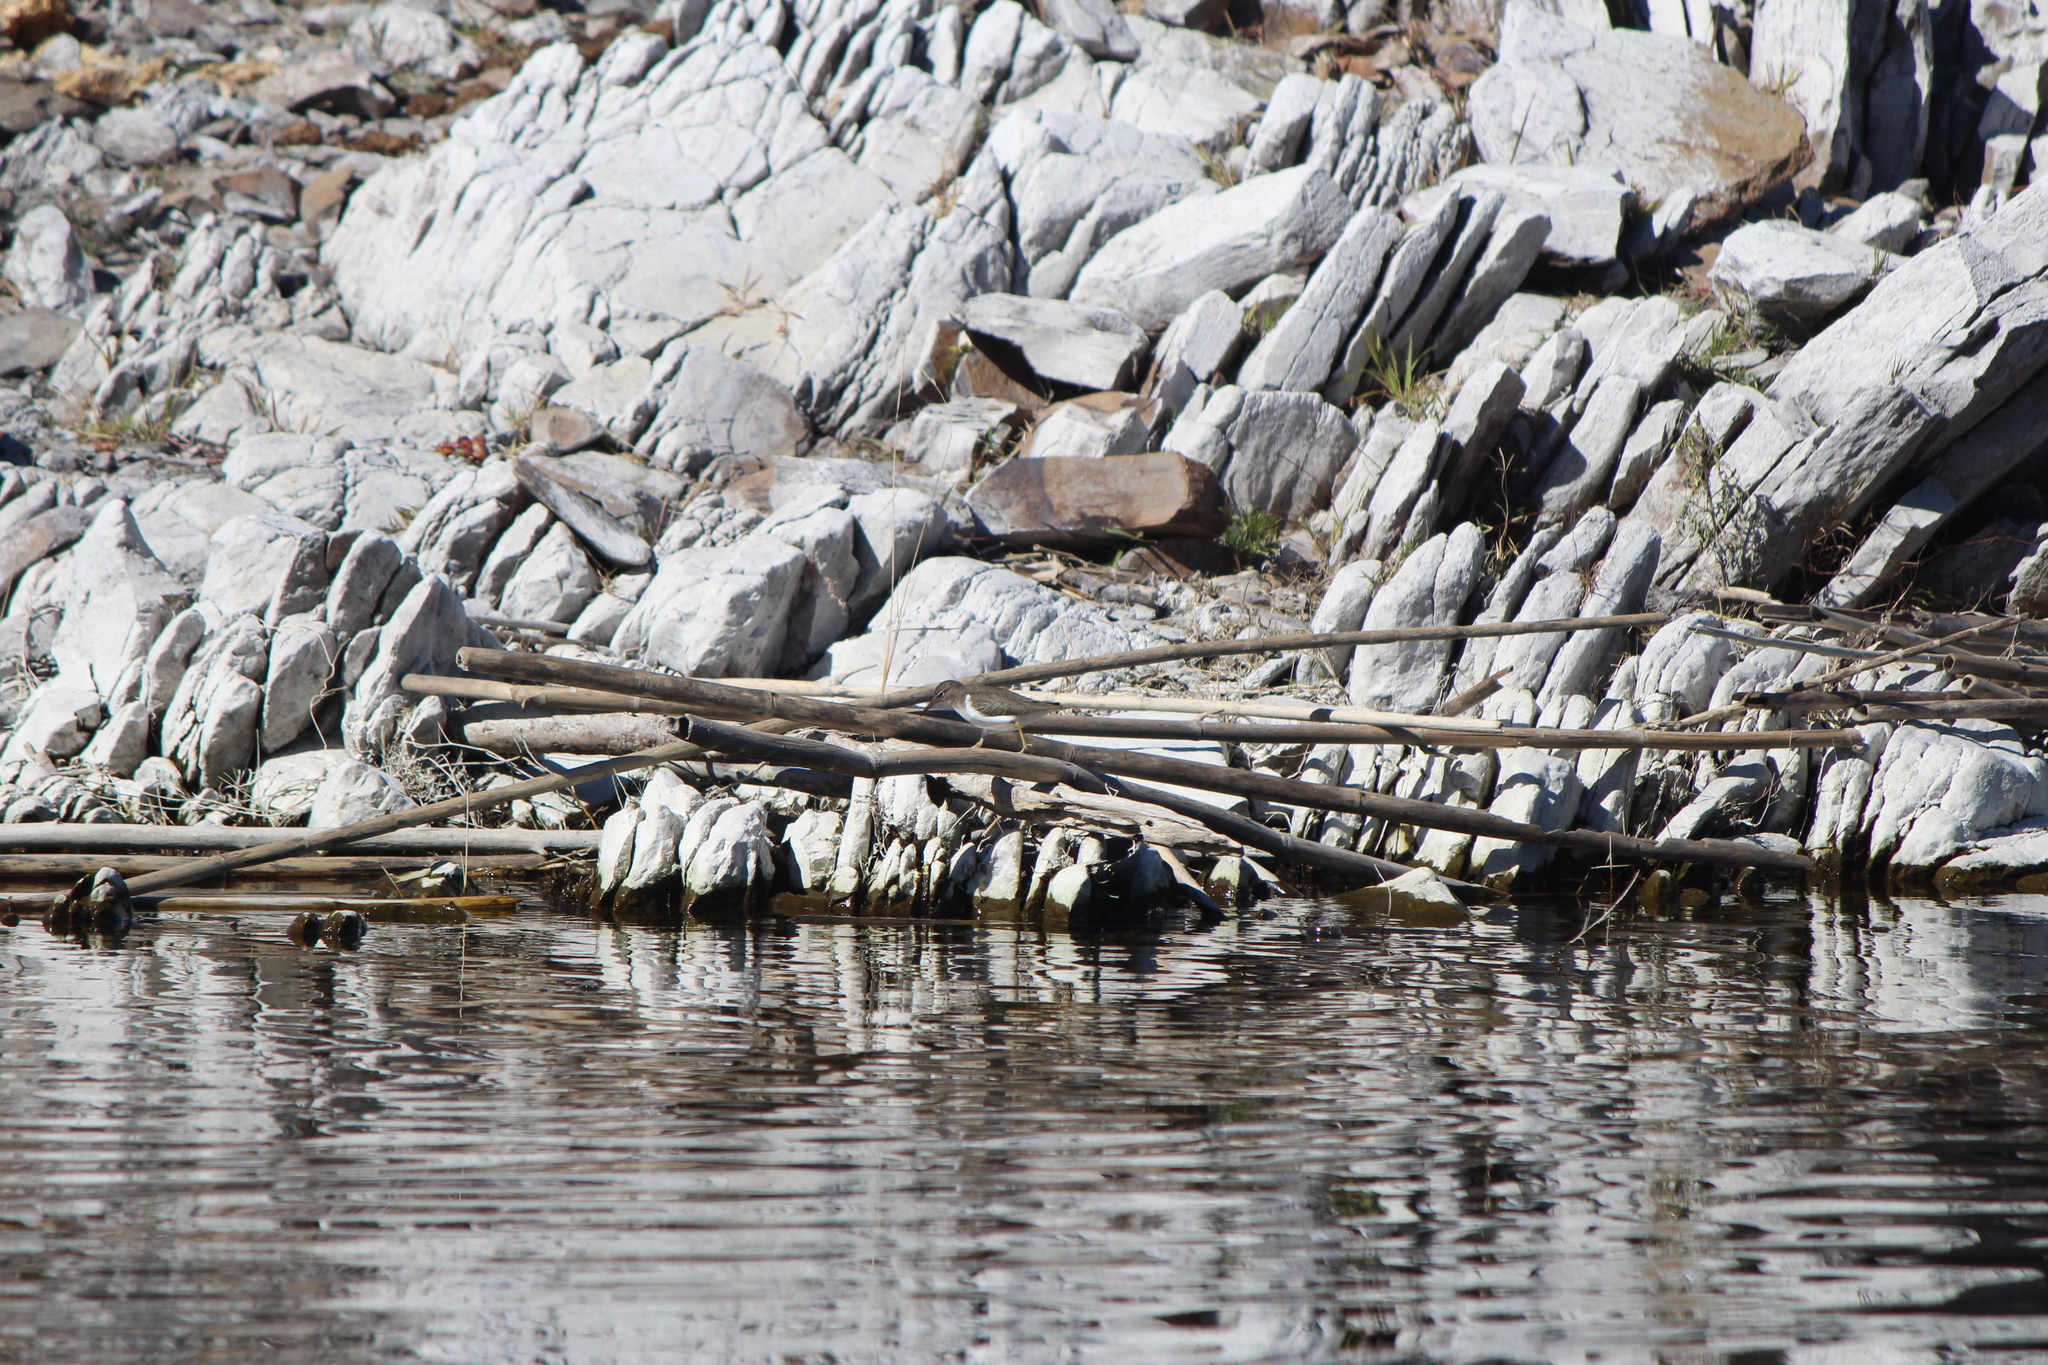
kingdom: Animalia
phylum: Chordata
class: Aves
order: Charadriiformes
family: Scolopacidae
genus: Actitis
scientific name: Actitis macularius
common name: Spotted sandpiper
